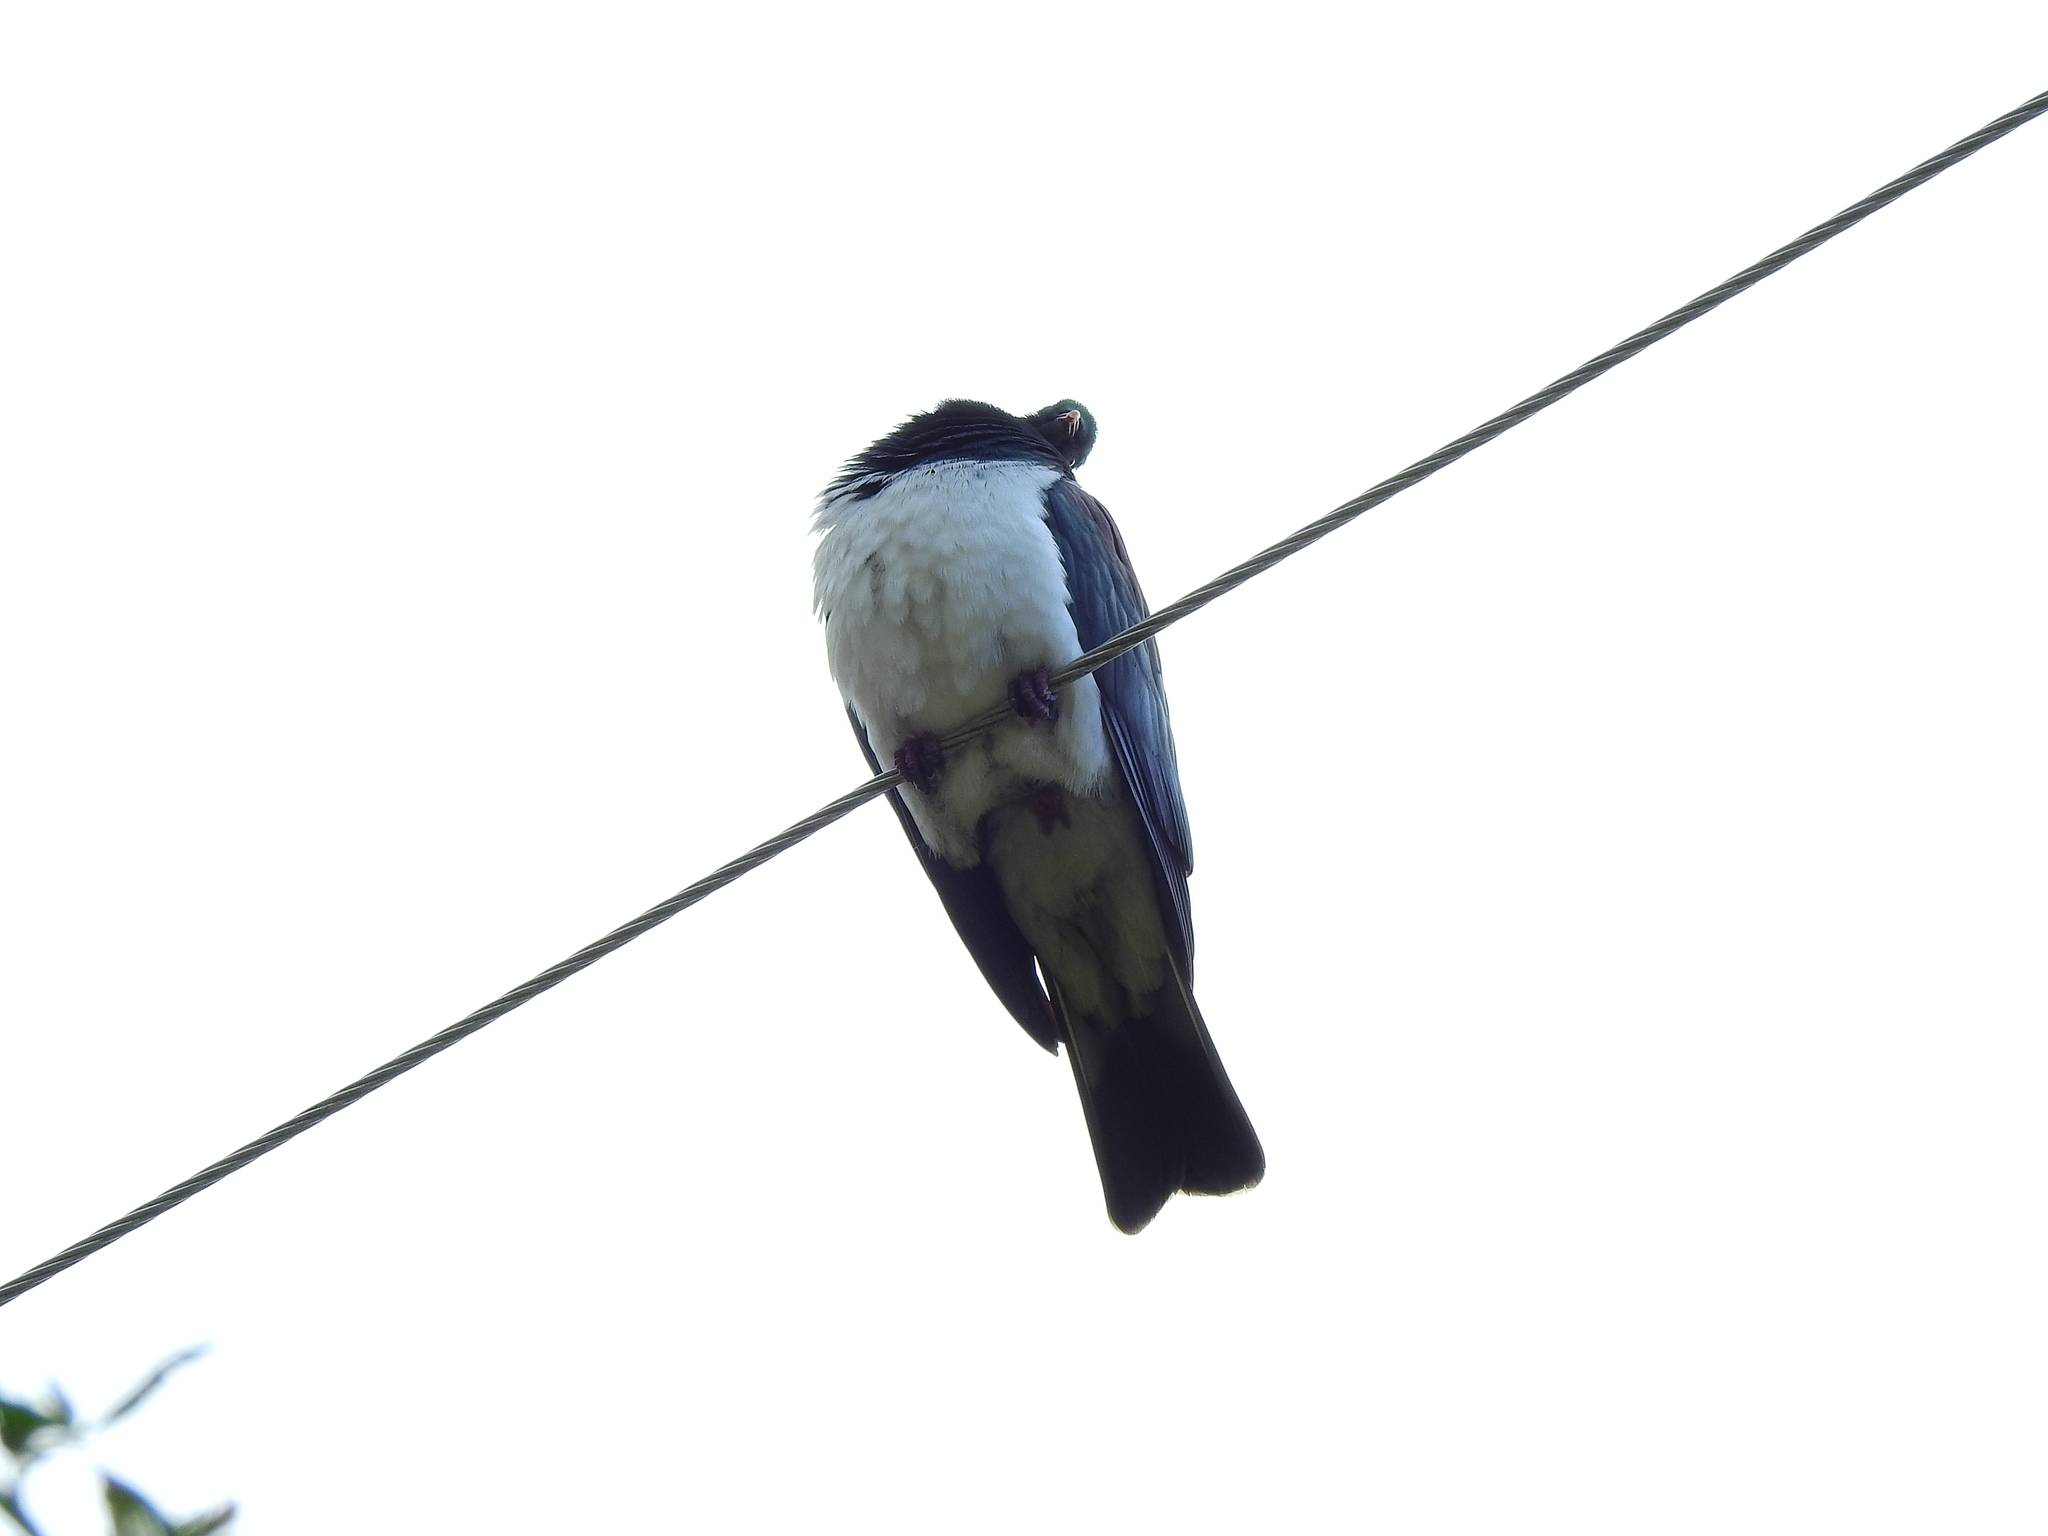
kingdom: Animalia
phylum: Chordata
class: Aves
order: Columbiformes
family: Columbidae
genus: Hemiphaga
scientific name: Hemiphaga novaeseelandiae
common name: New zealand pigeon
